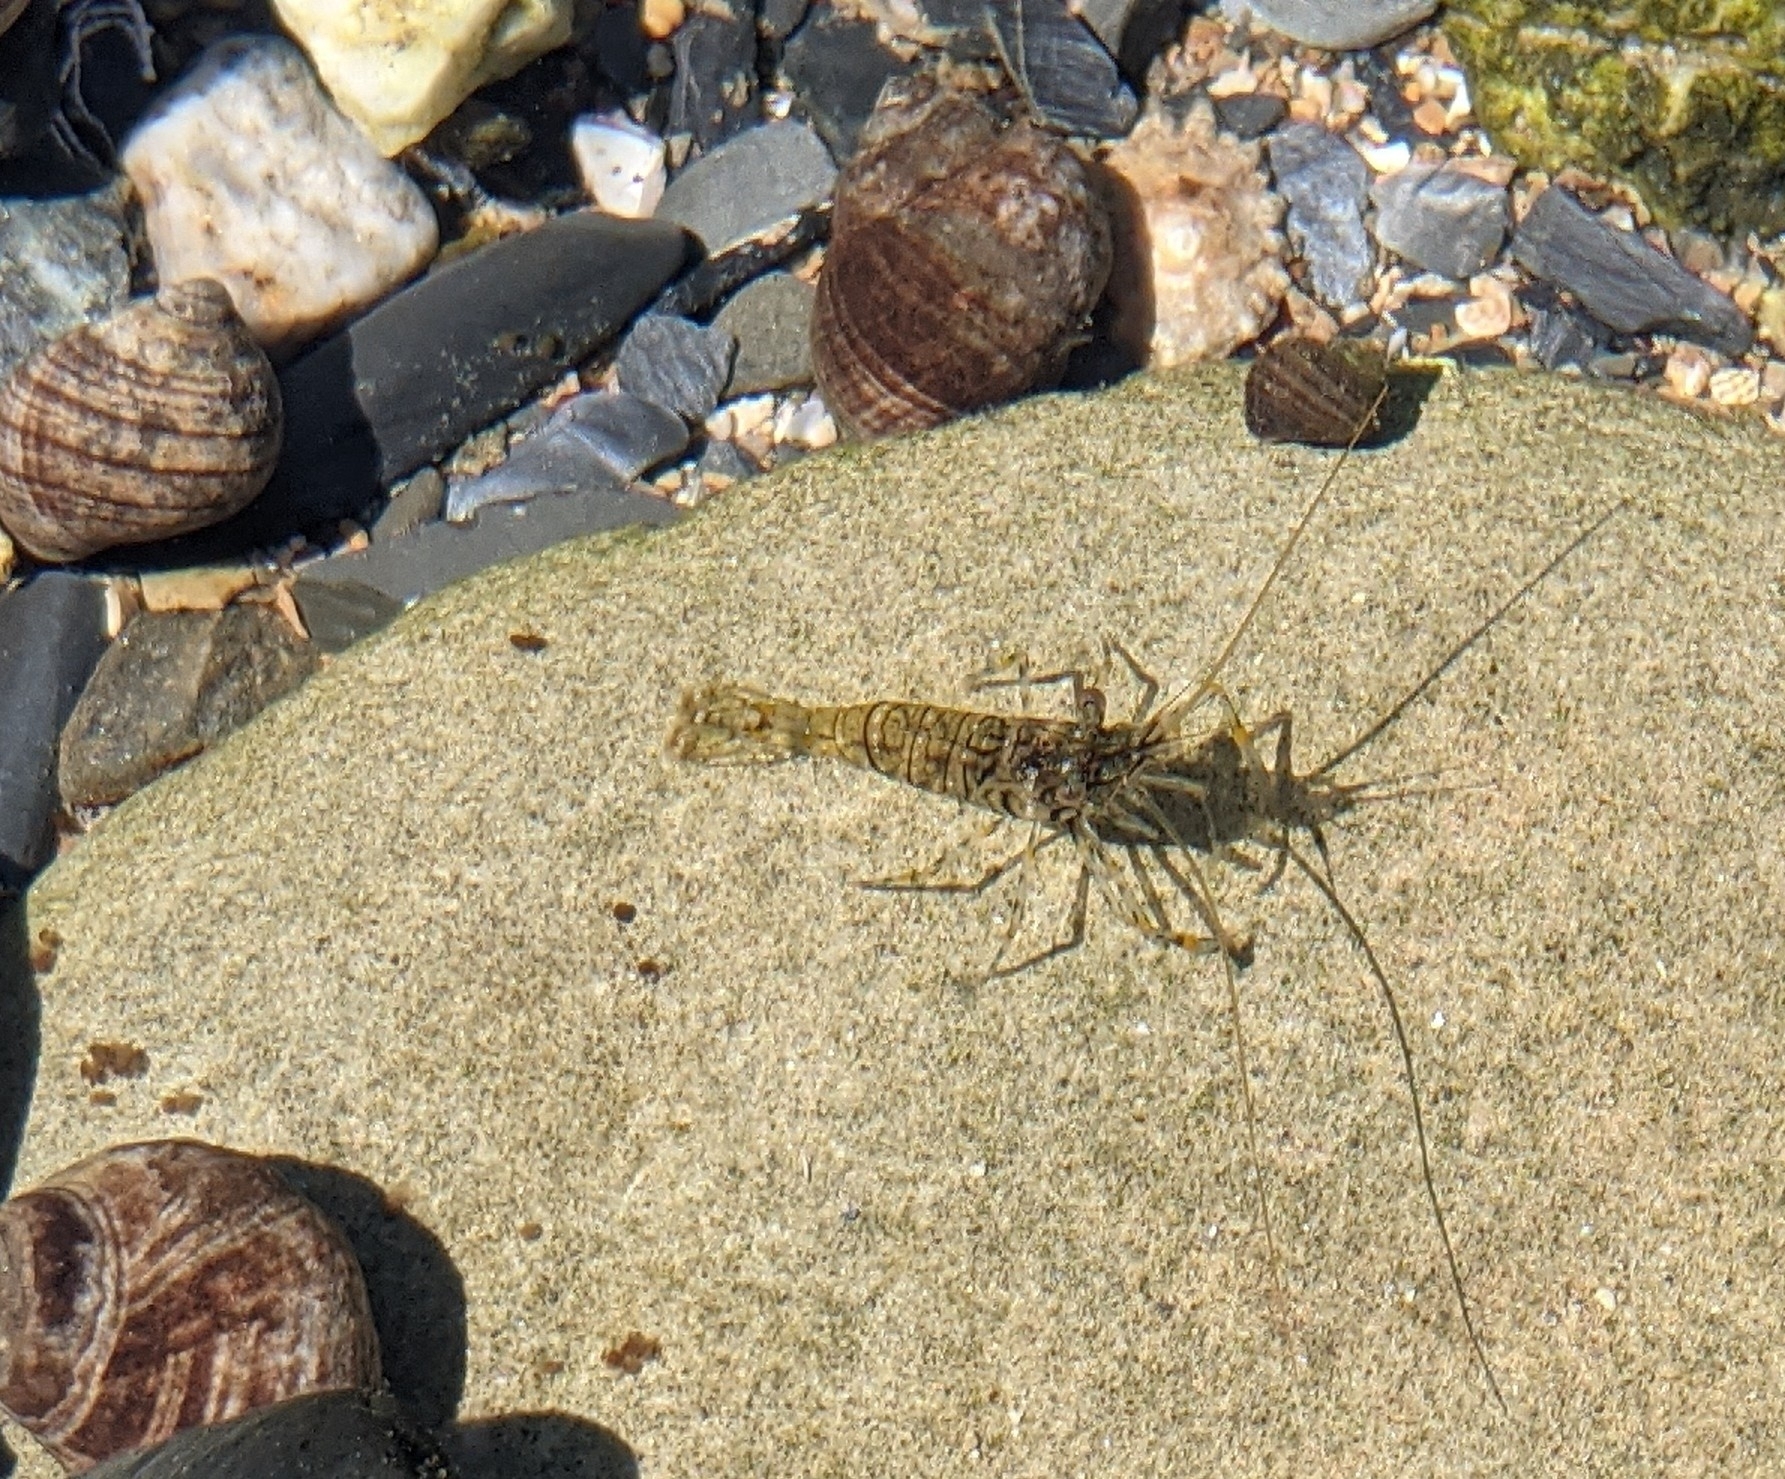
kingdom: Animalia
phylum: Arthropoda
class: Malacostraca
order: Decapoda
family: Palaemonidae
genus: Palaemon
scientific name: Palaemon elegans
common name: Grass prawm
